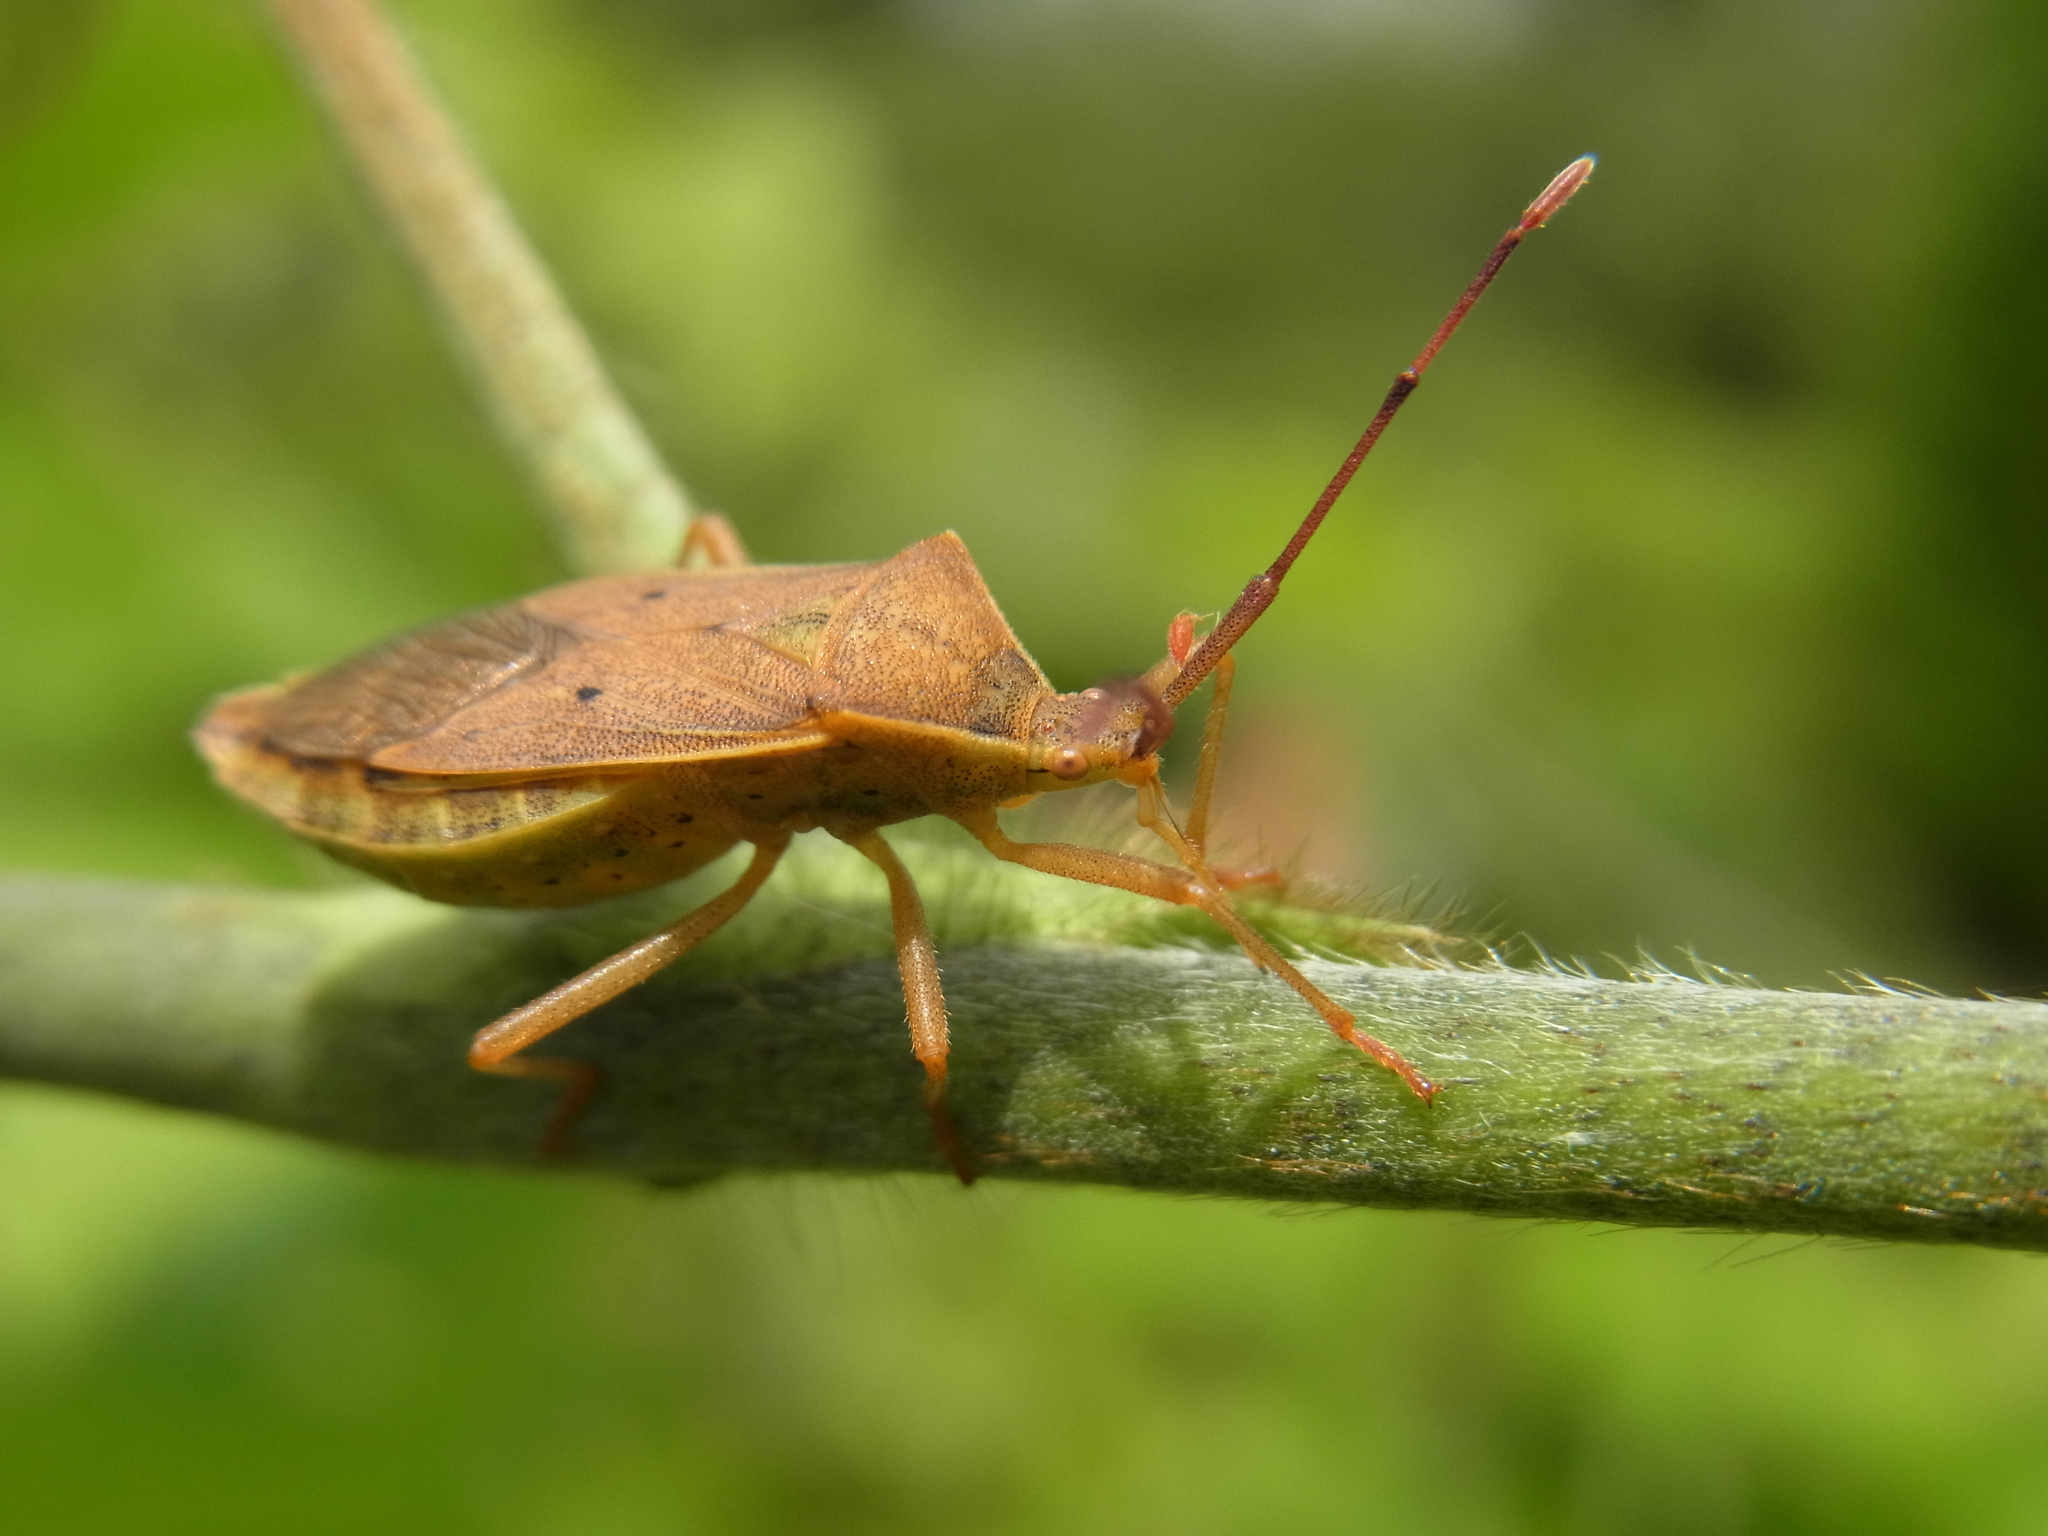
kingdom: Animalia
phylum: Arthropoda
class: Insecta
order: Hemiptera
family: Coreidae
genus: Homoeocerus
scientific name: Homoeocerus unipunctatus
